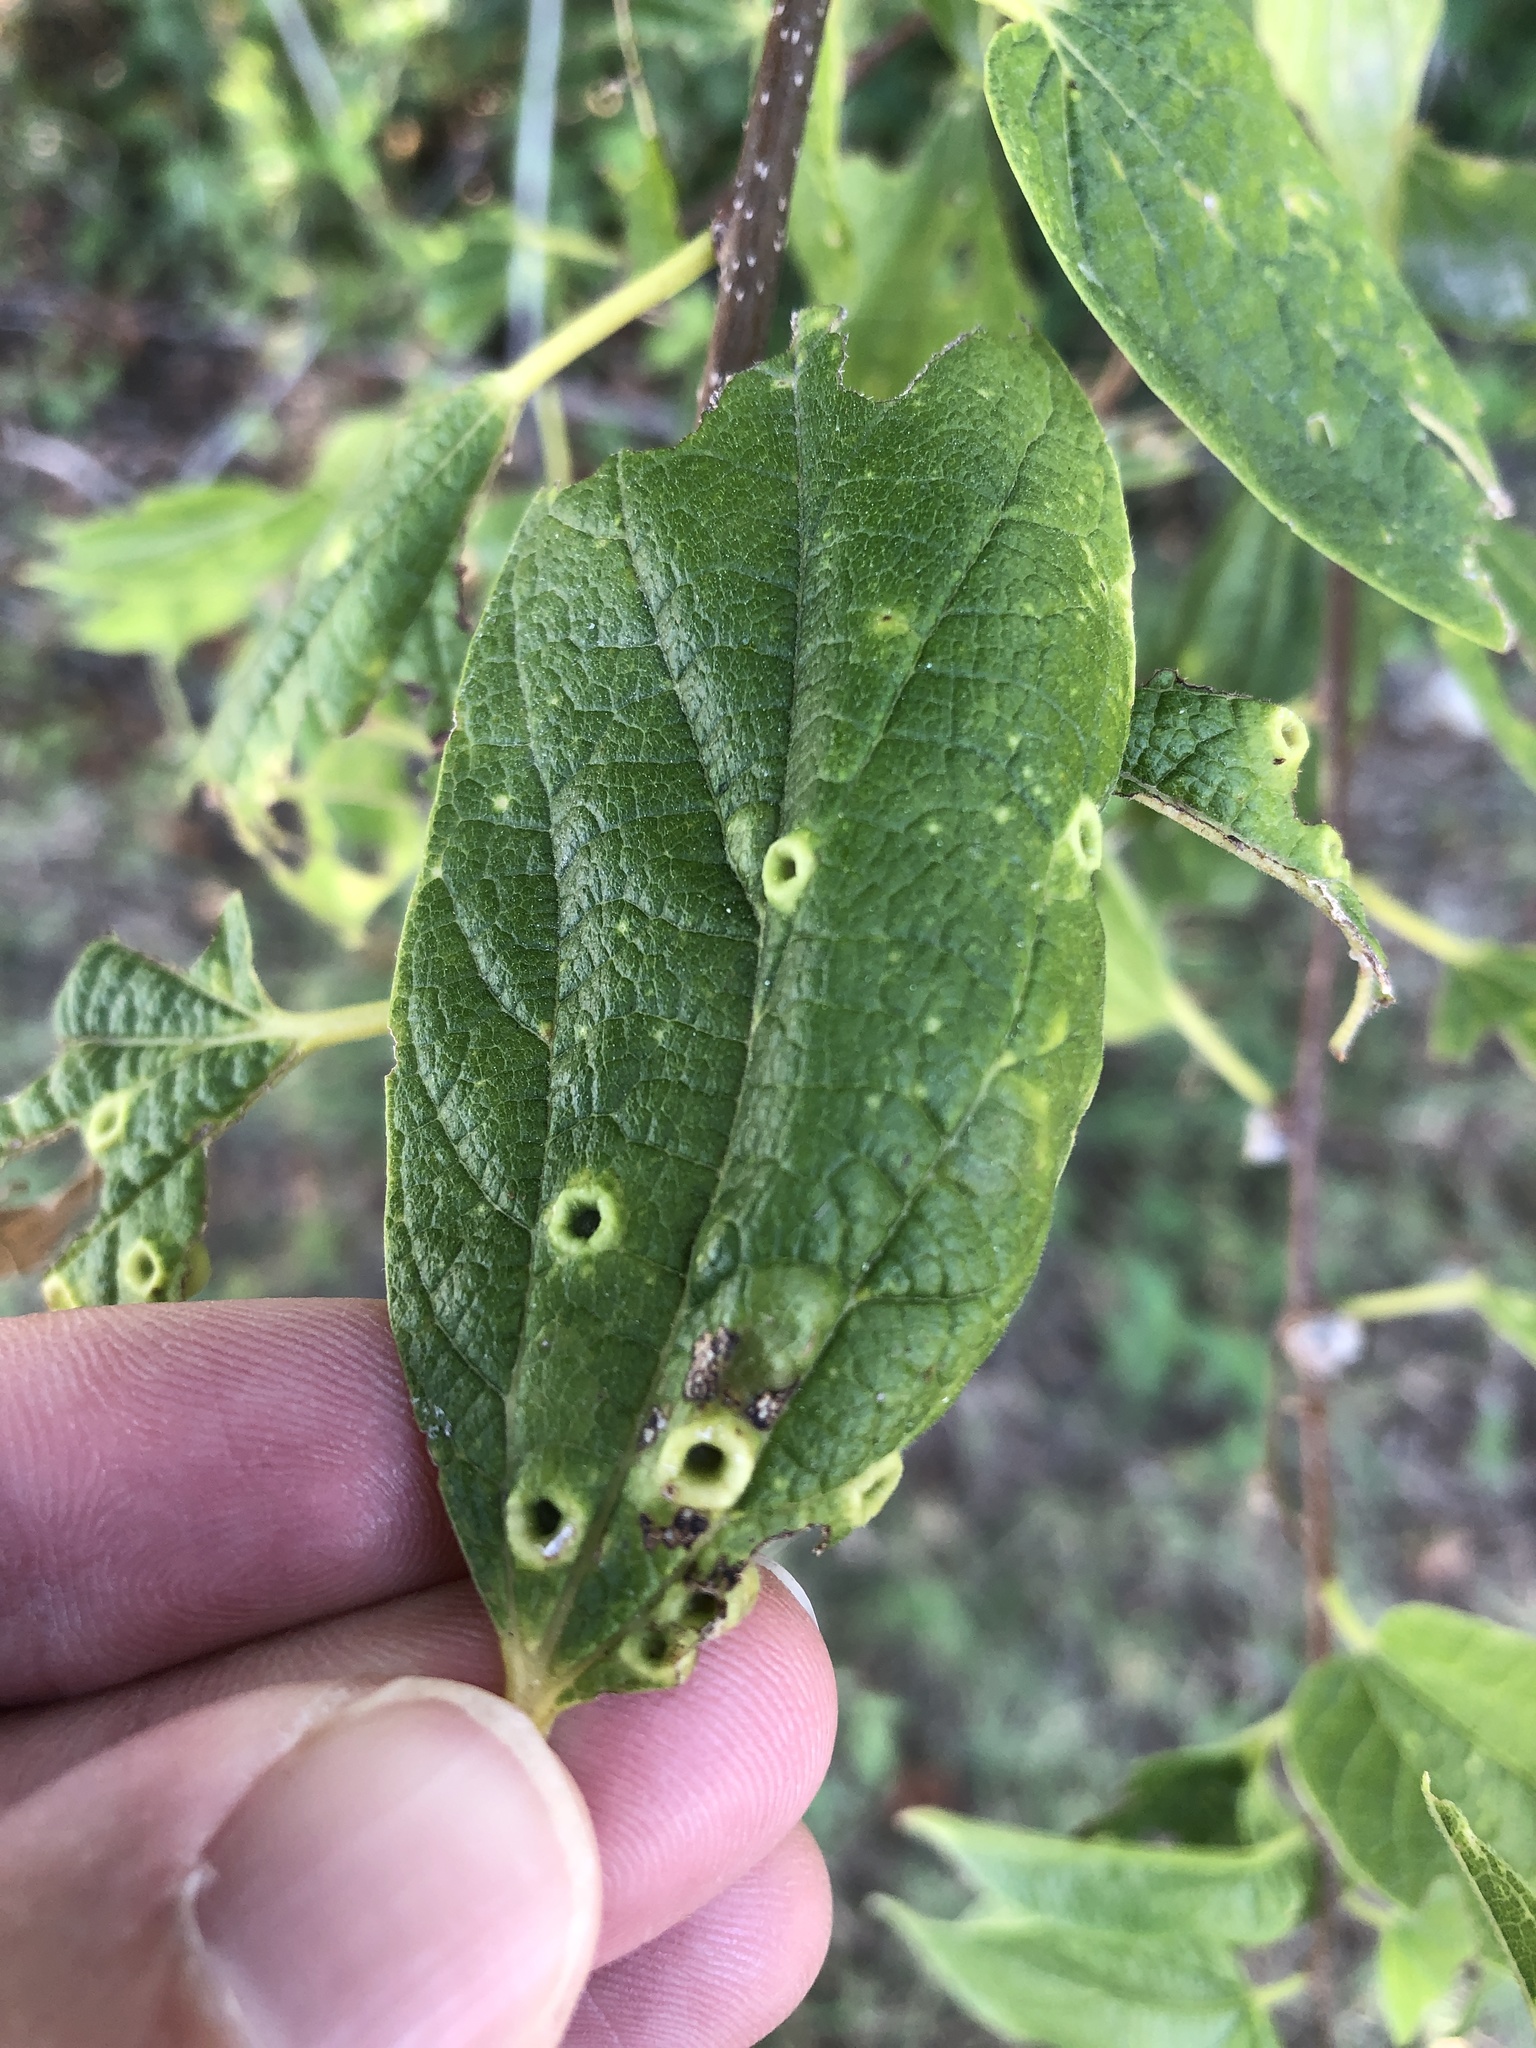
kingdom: Animalia
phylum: Arthropoda
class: Insecta
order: Hemiptera
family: Aphalaridae
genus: Pachypsylla
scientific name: Pachypsylla celtidismamma
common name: Hackberry nipplegall psyllid
